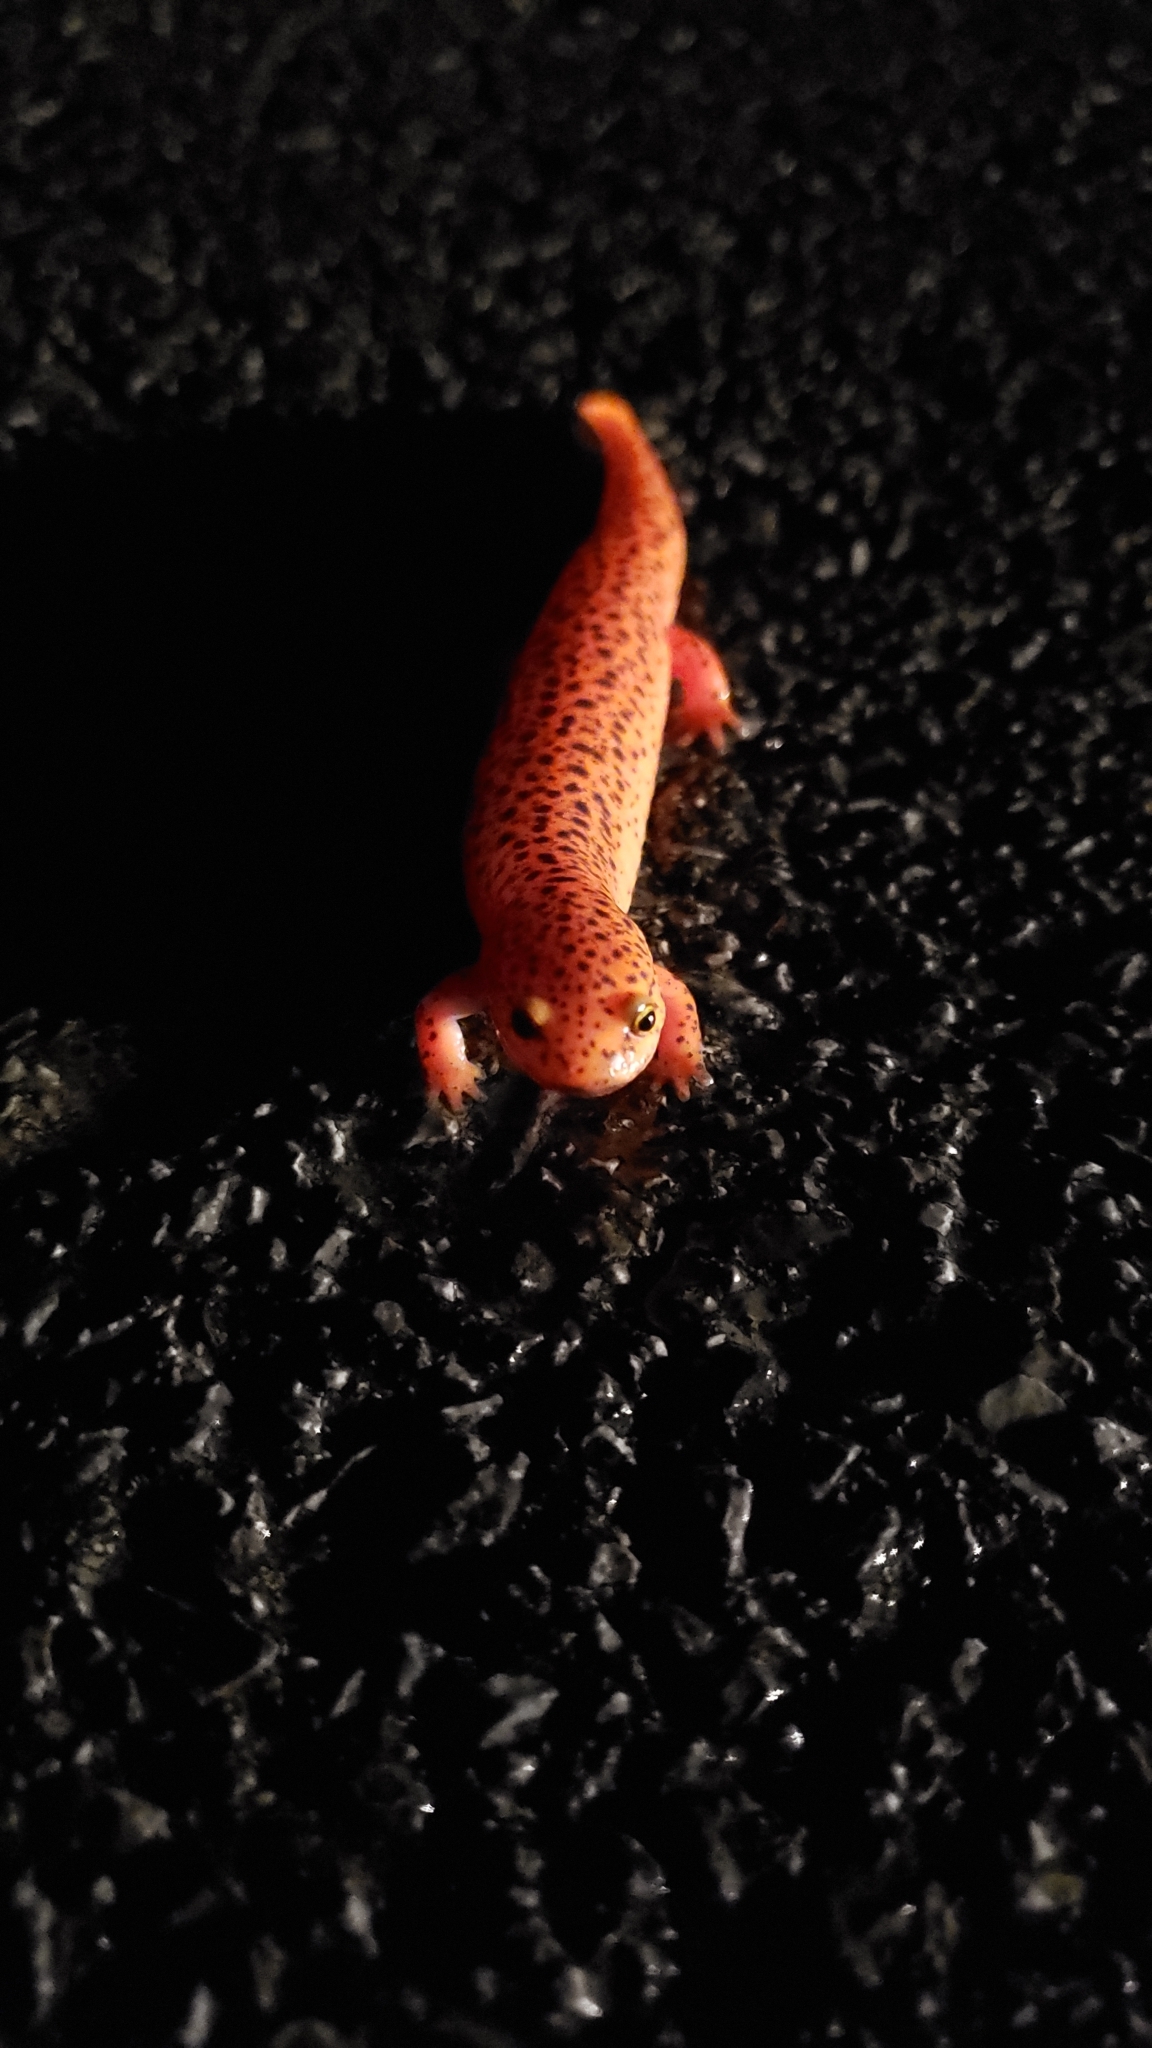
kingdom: Animalia
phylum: Chordata
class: Amphibia
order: Caudata
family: Plethodontidae
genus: Pseudotriton
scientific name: Pseudotriton ruber
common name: Red salamander
